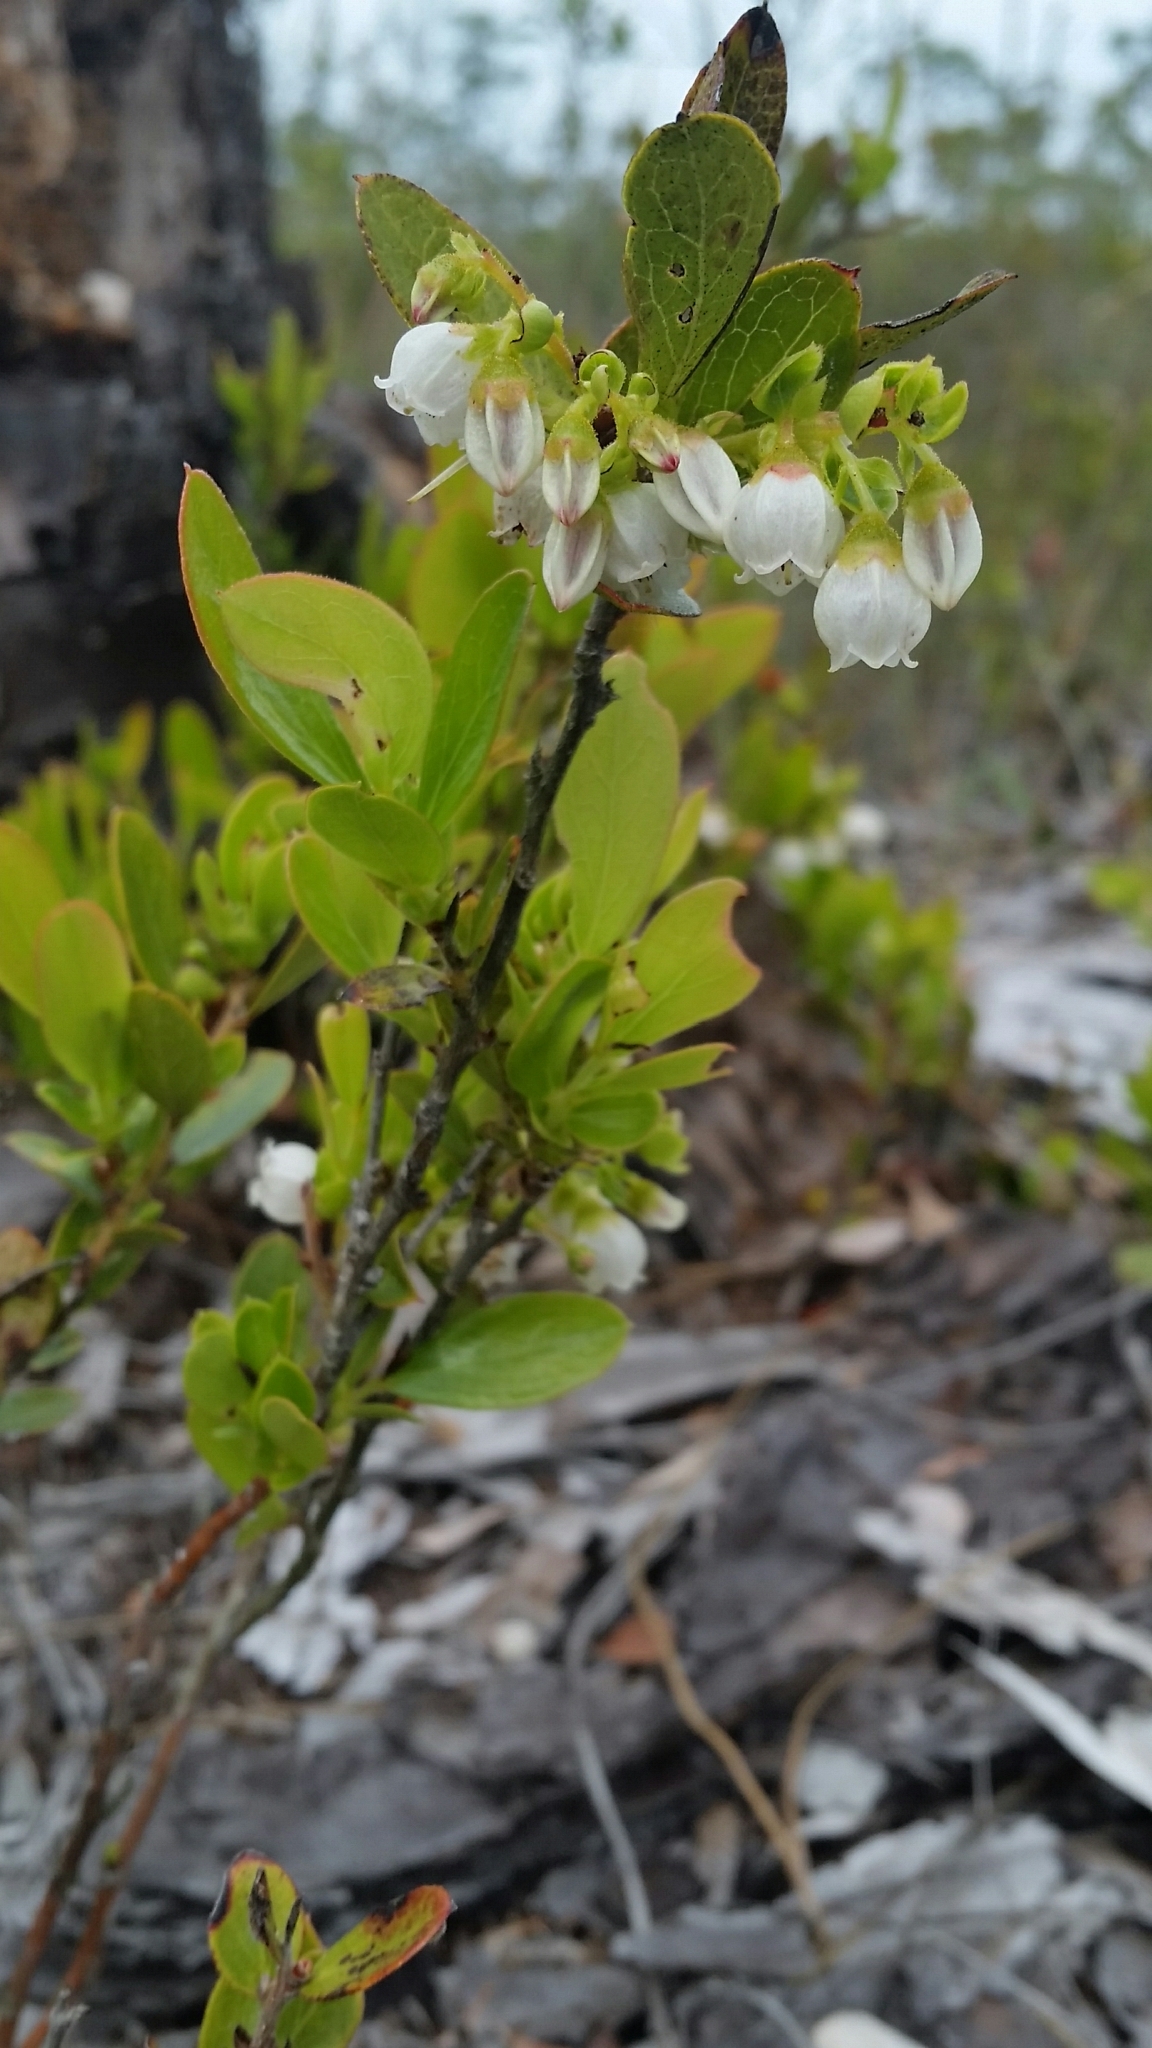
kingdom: Plantae
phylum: Tracheophyta
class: Magnoliopsida
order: Ericales
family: Ericaceae
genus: Gaylussacia
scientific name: Gaylussacia dumosa
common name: Dwarf huckleberry
